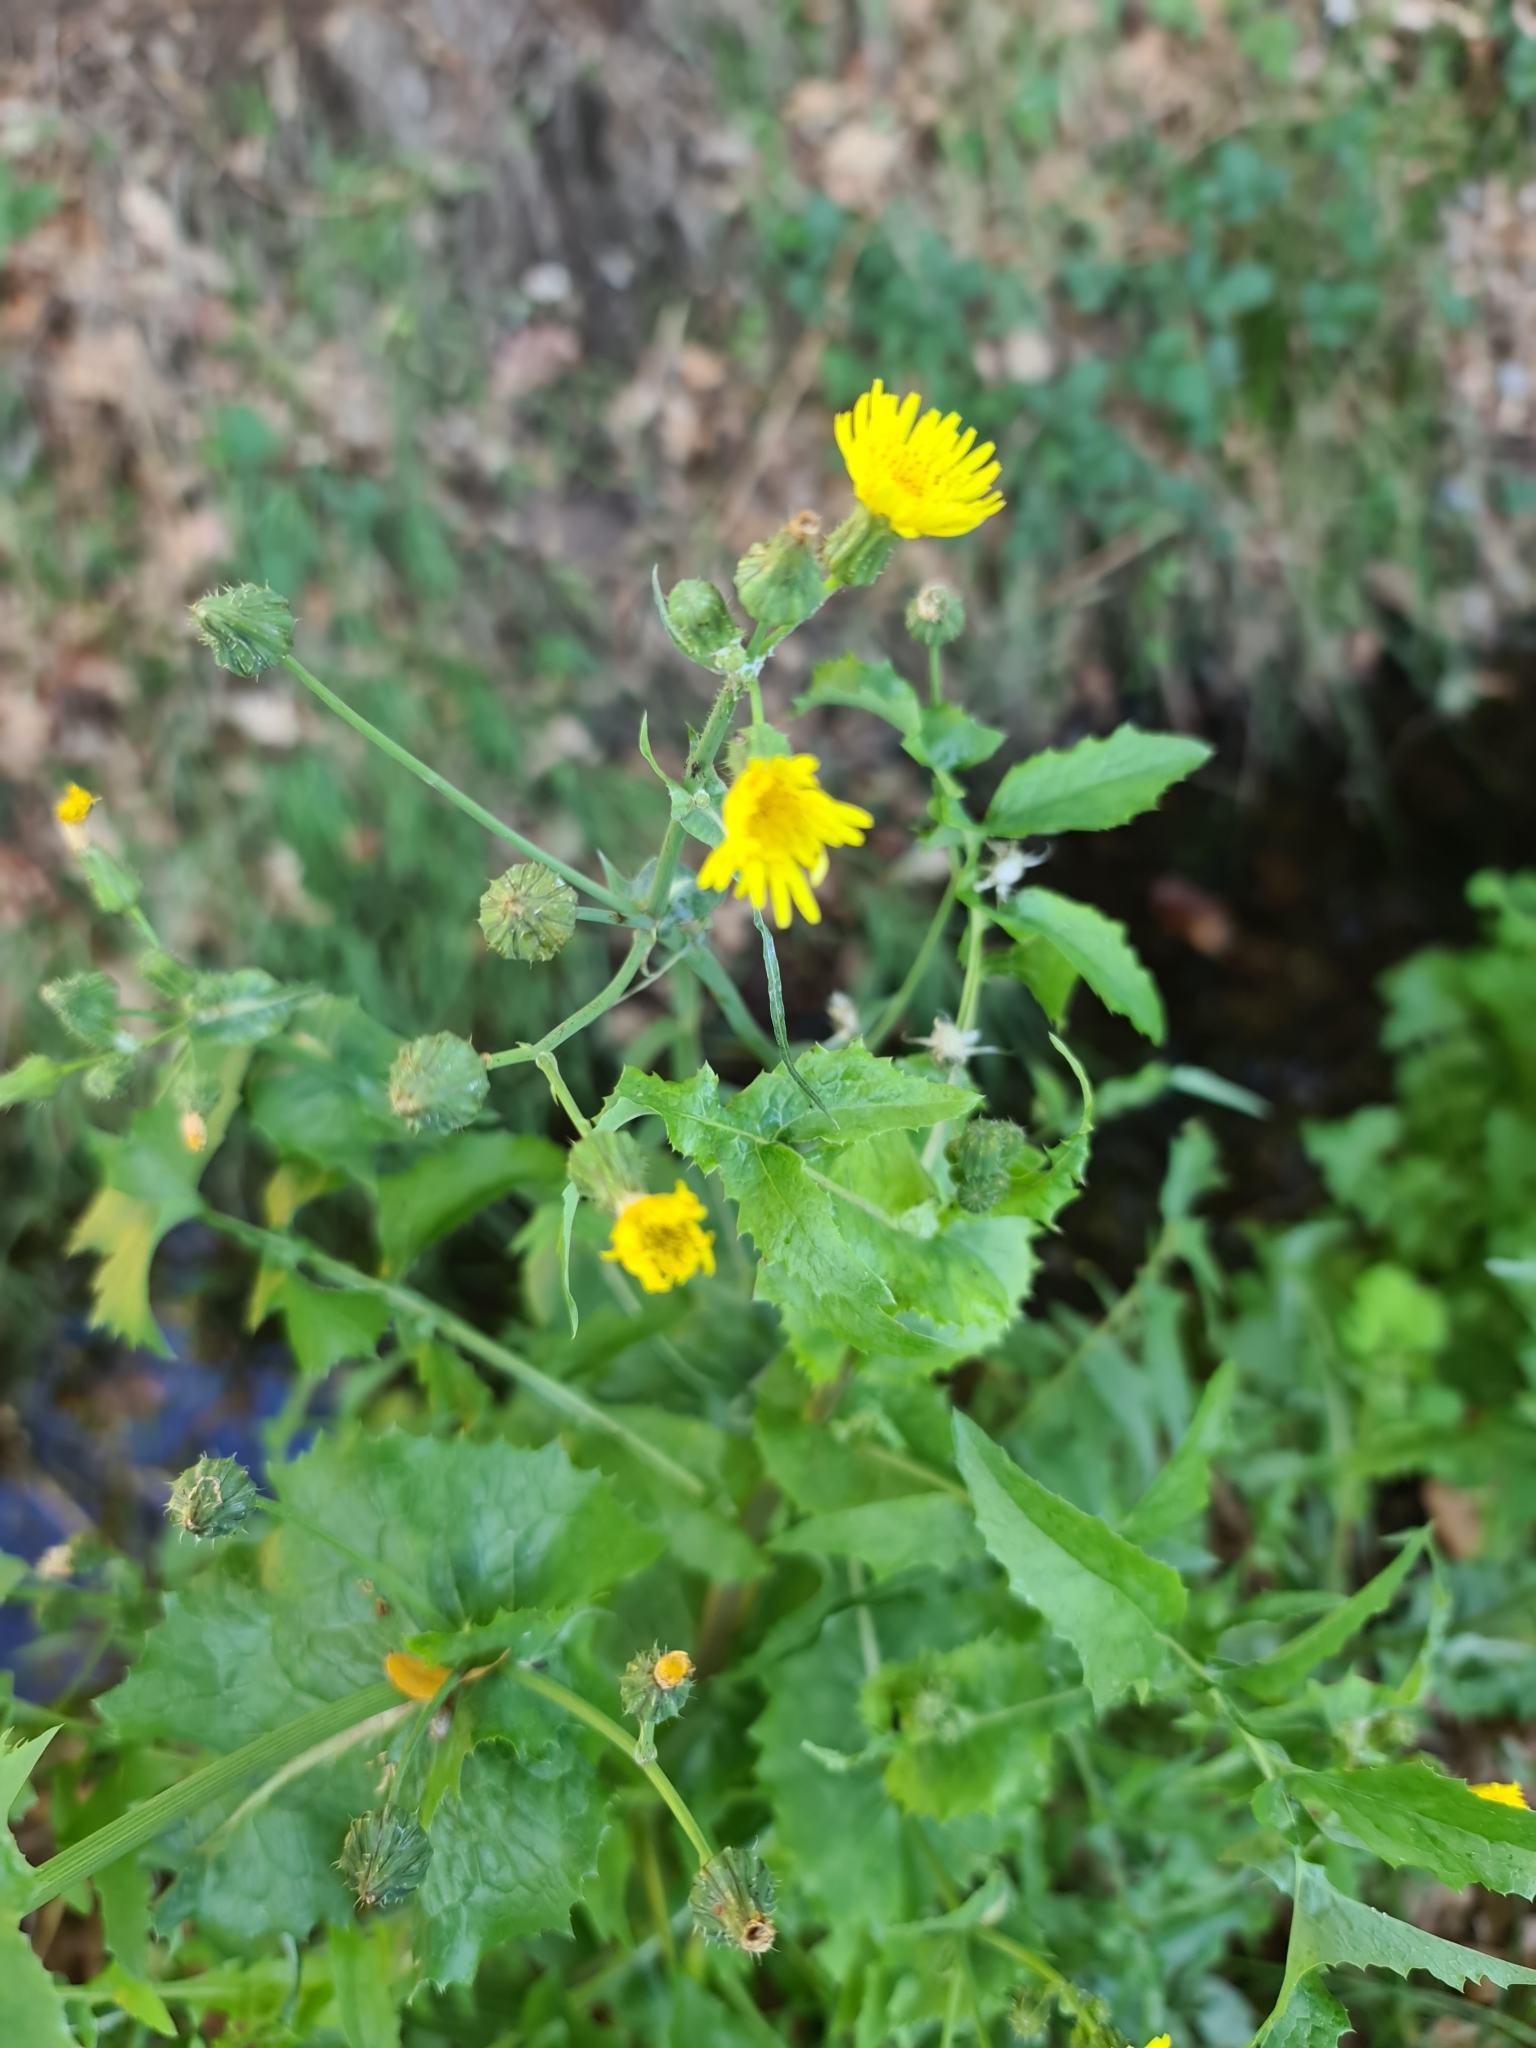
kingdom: Plantae
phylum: Tracheophyta
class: Magnoliopsida
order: Asterales
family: Asteraceae
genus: Sonchus
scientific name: Sonchus oleraceus
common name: Common sowthistle
